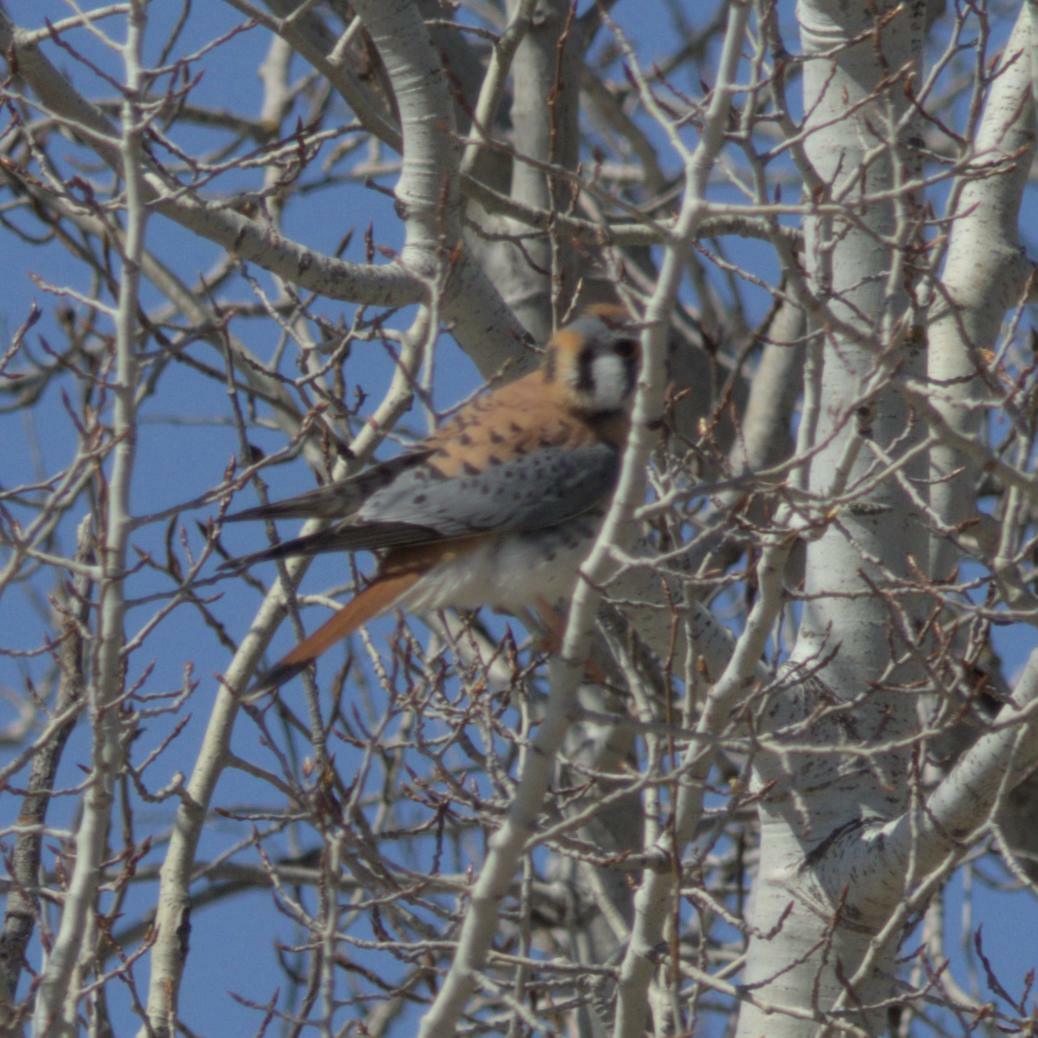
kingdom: Animalia
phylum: Chordata
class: Aves
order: Falconiformes
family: Falconidae
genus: Falco
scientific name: Falco sparverius
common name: American kestrel
